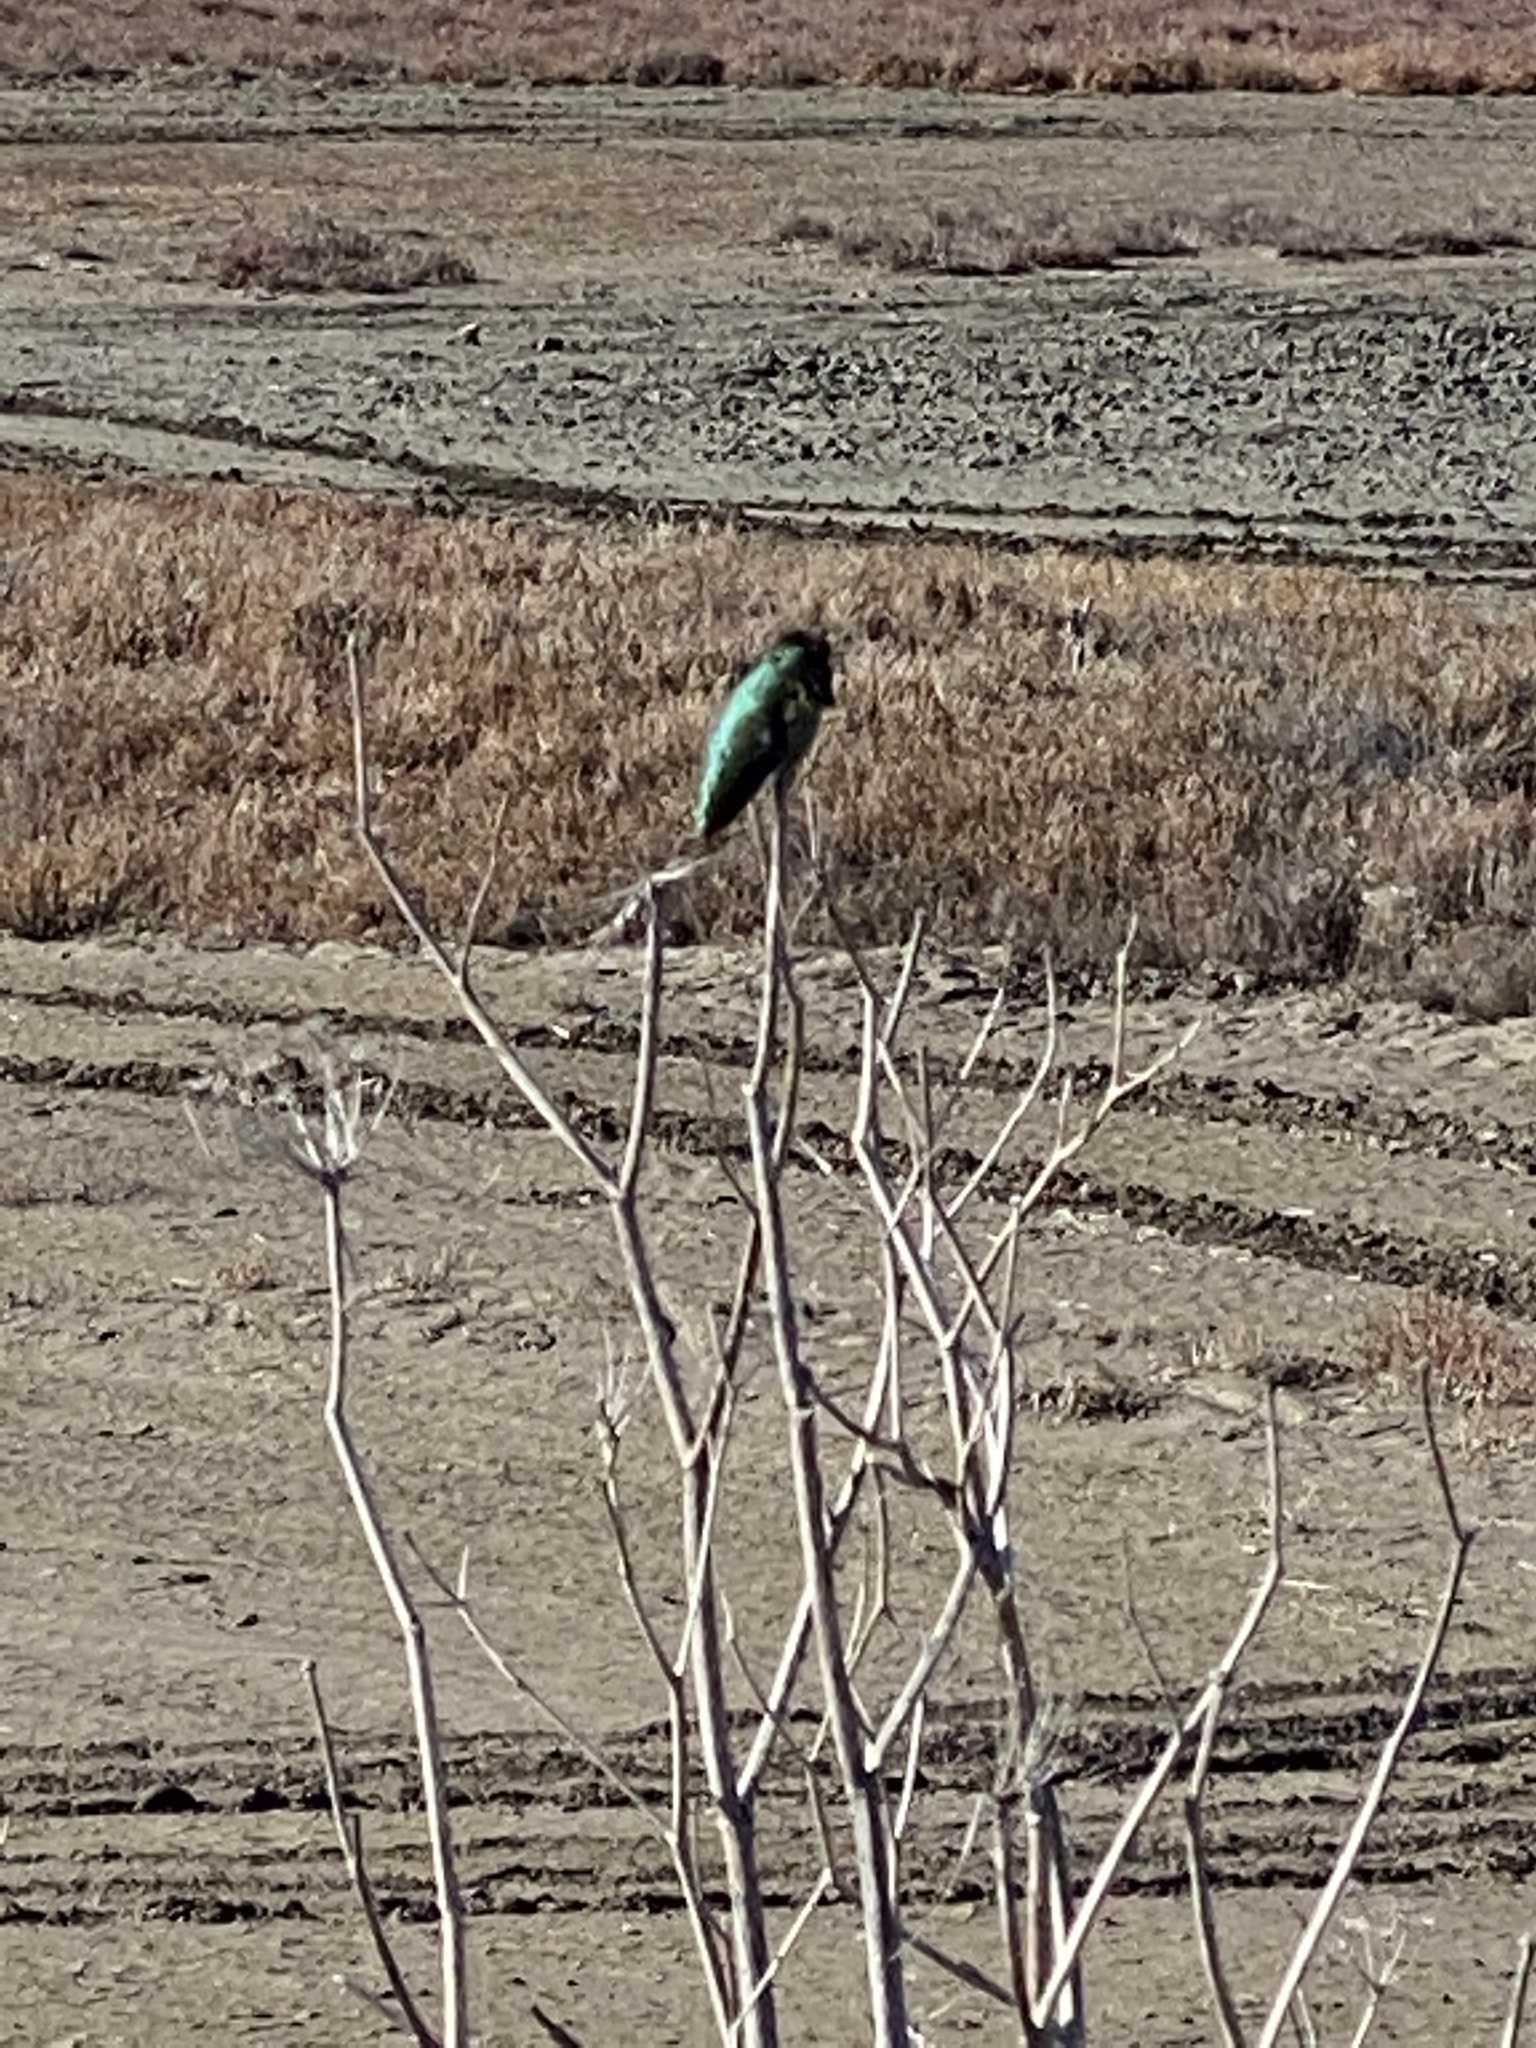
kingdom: Animalia
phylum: Chordata
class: Aves
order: Apodiformes
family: Trochilidae
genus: Calypte
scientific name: Calypte anna
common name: Anna's hummingbird
